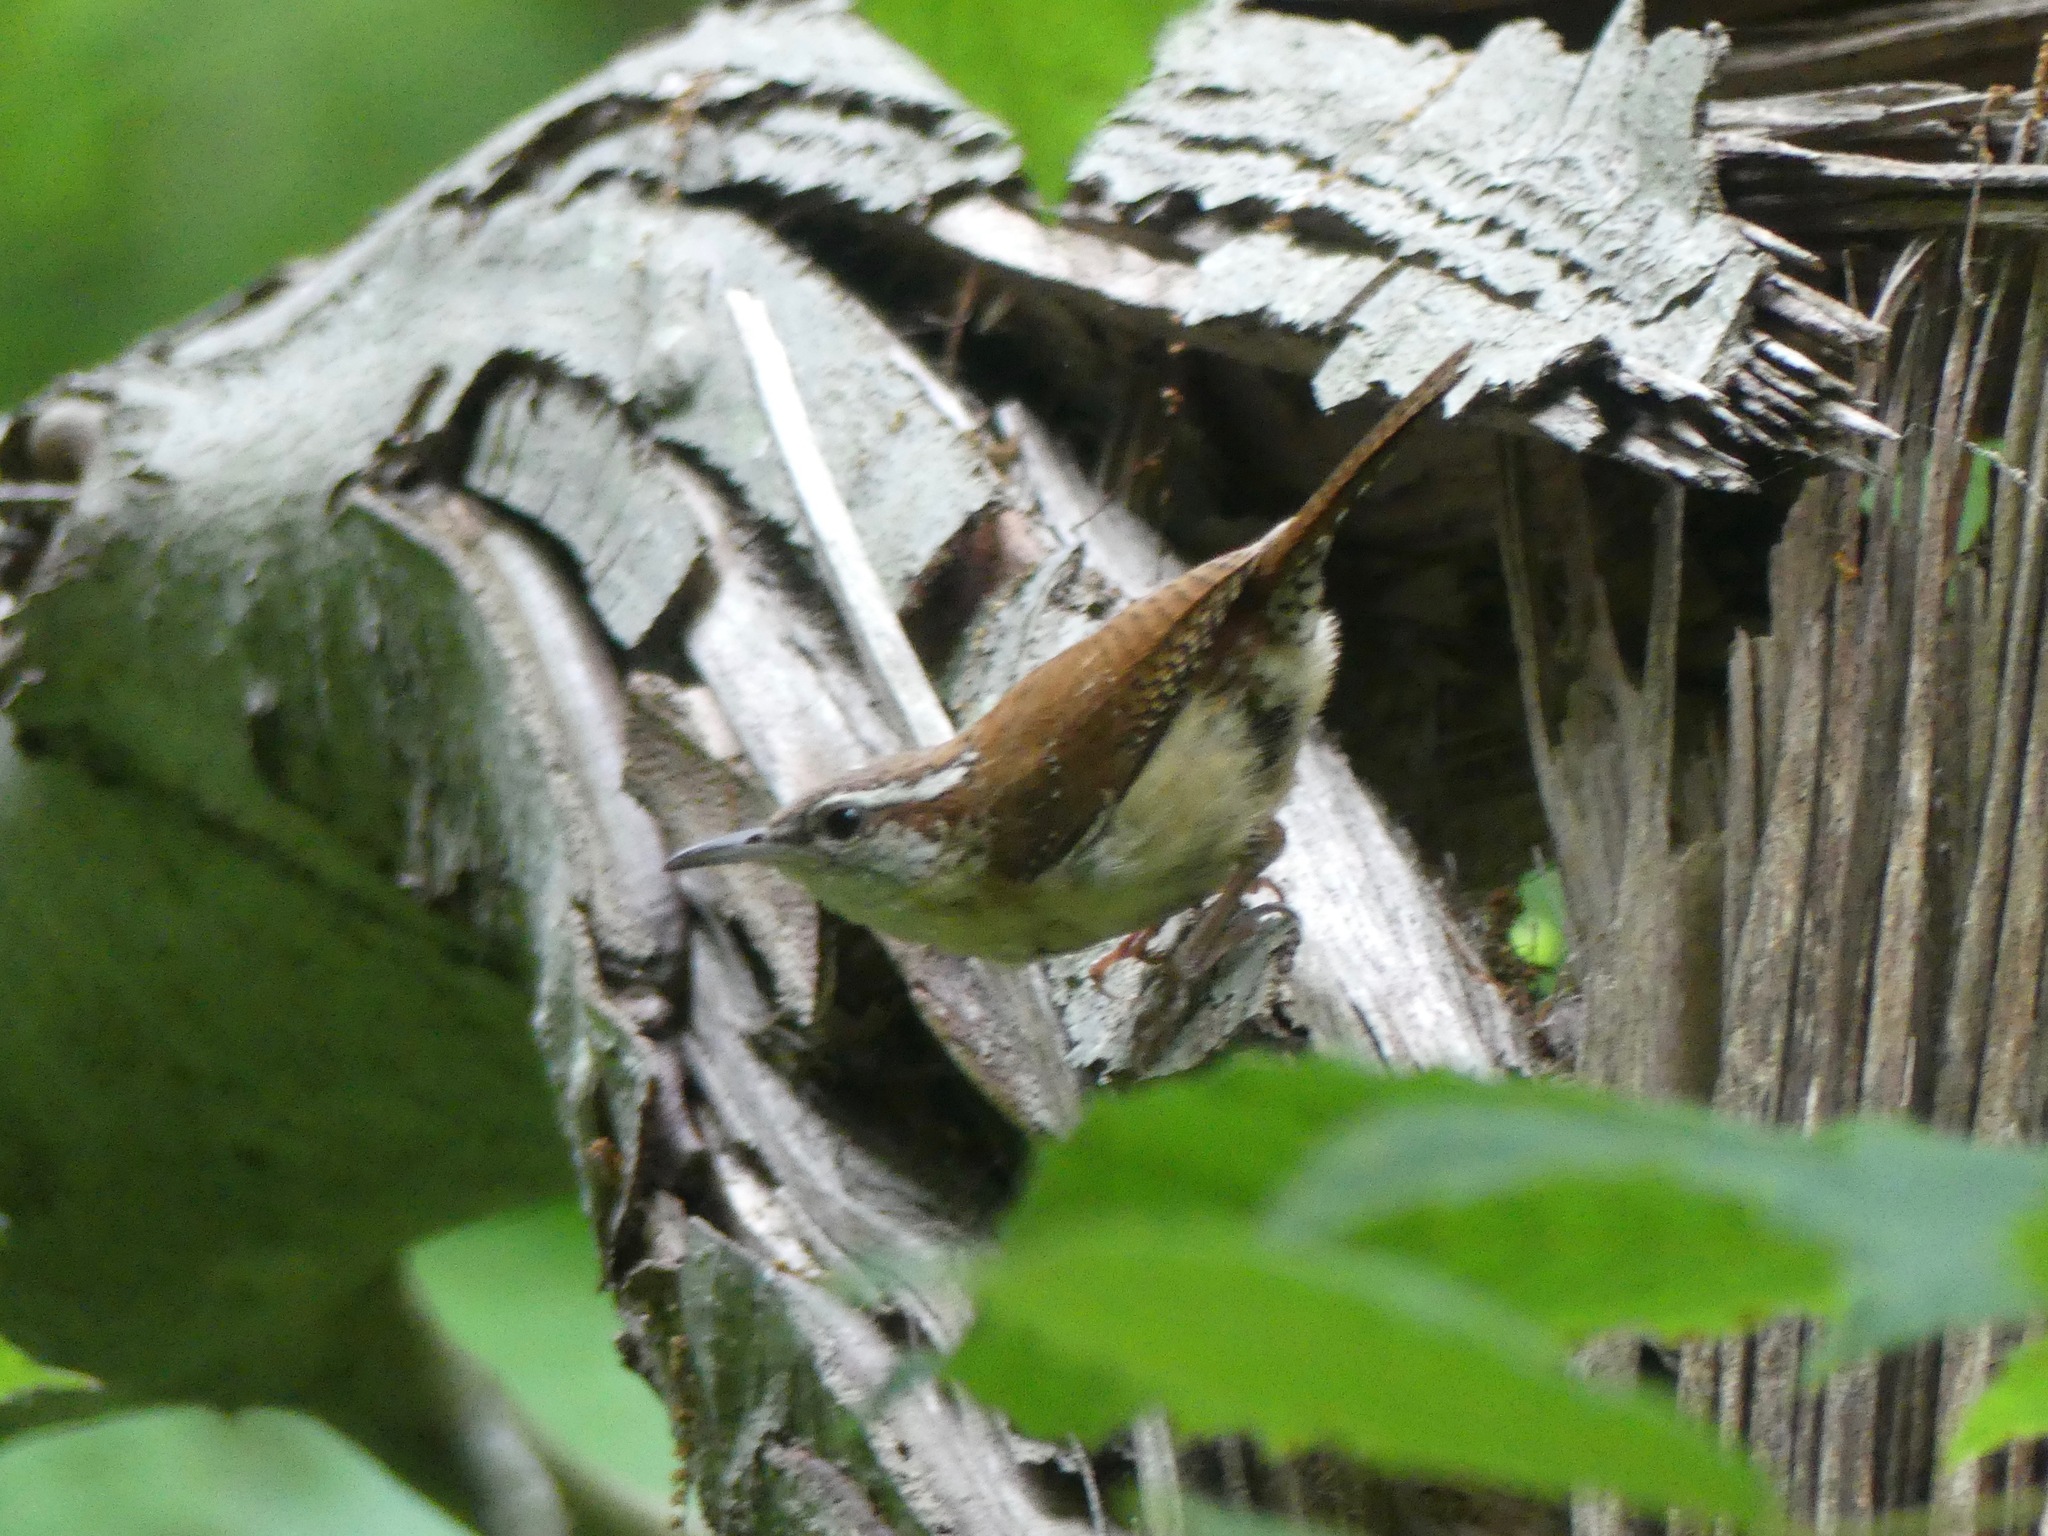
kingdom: Animalia
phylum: Chordata
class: Aves
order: Passeriformes
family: Troglodytidae
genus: Thryothorus
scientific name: Thryothorus ludovicianus
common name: Carolina wren
